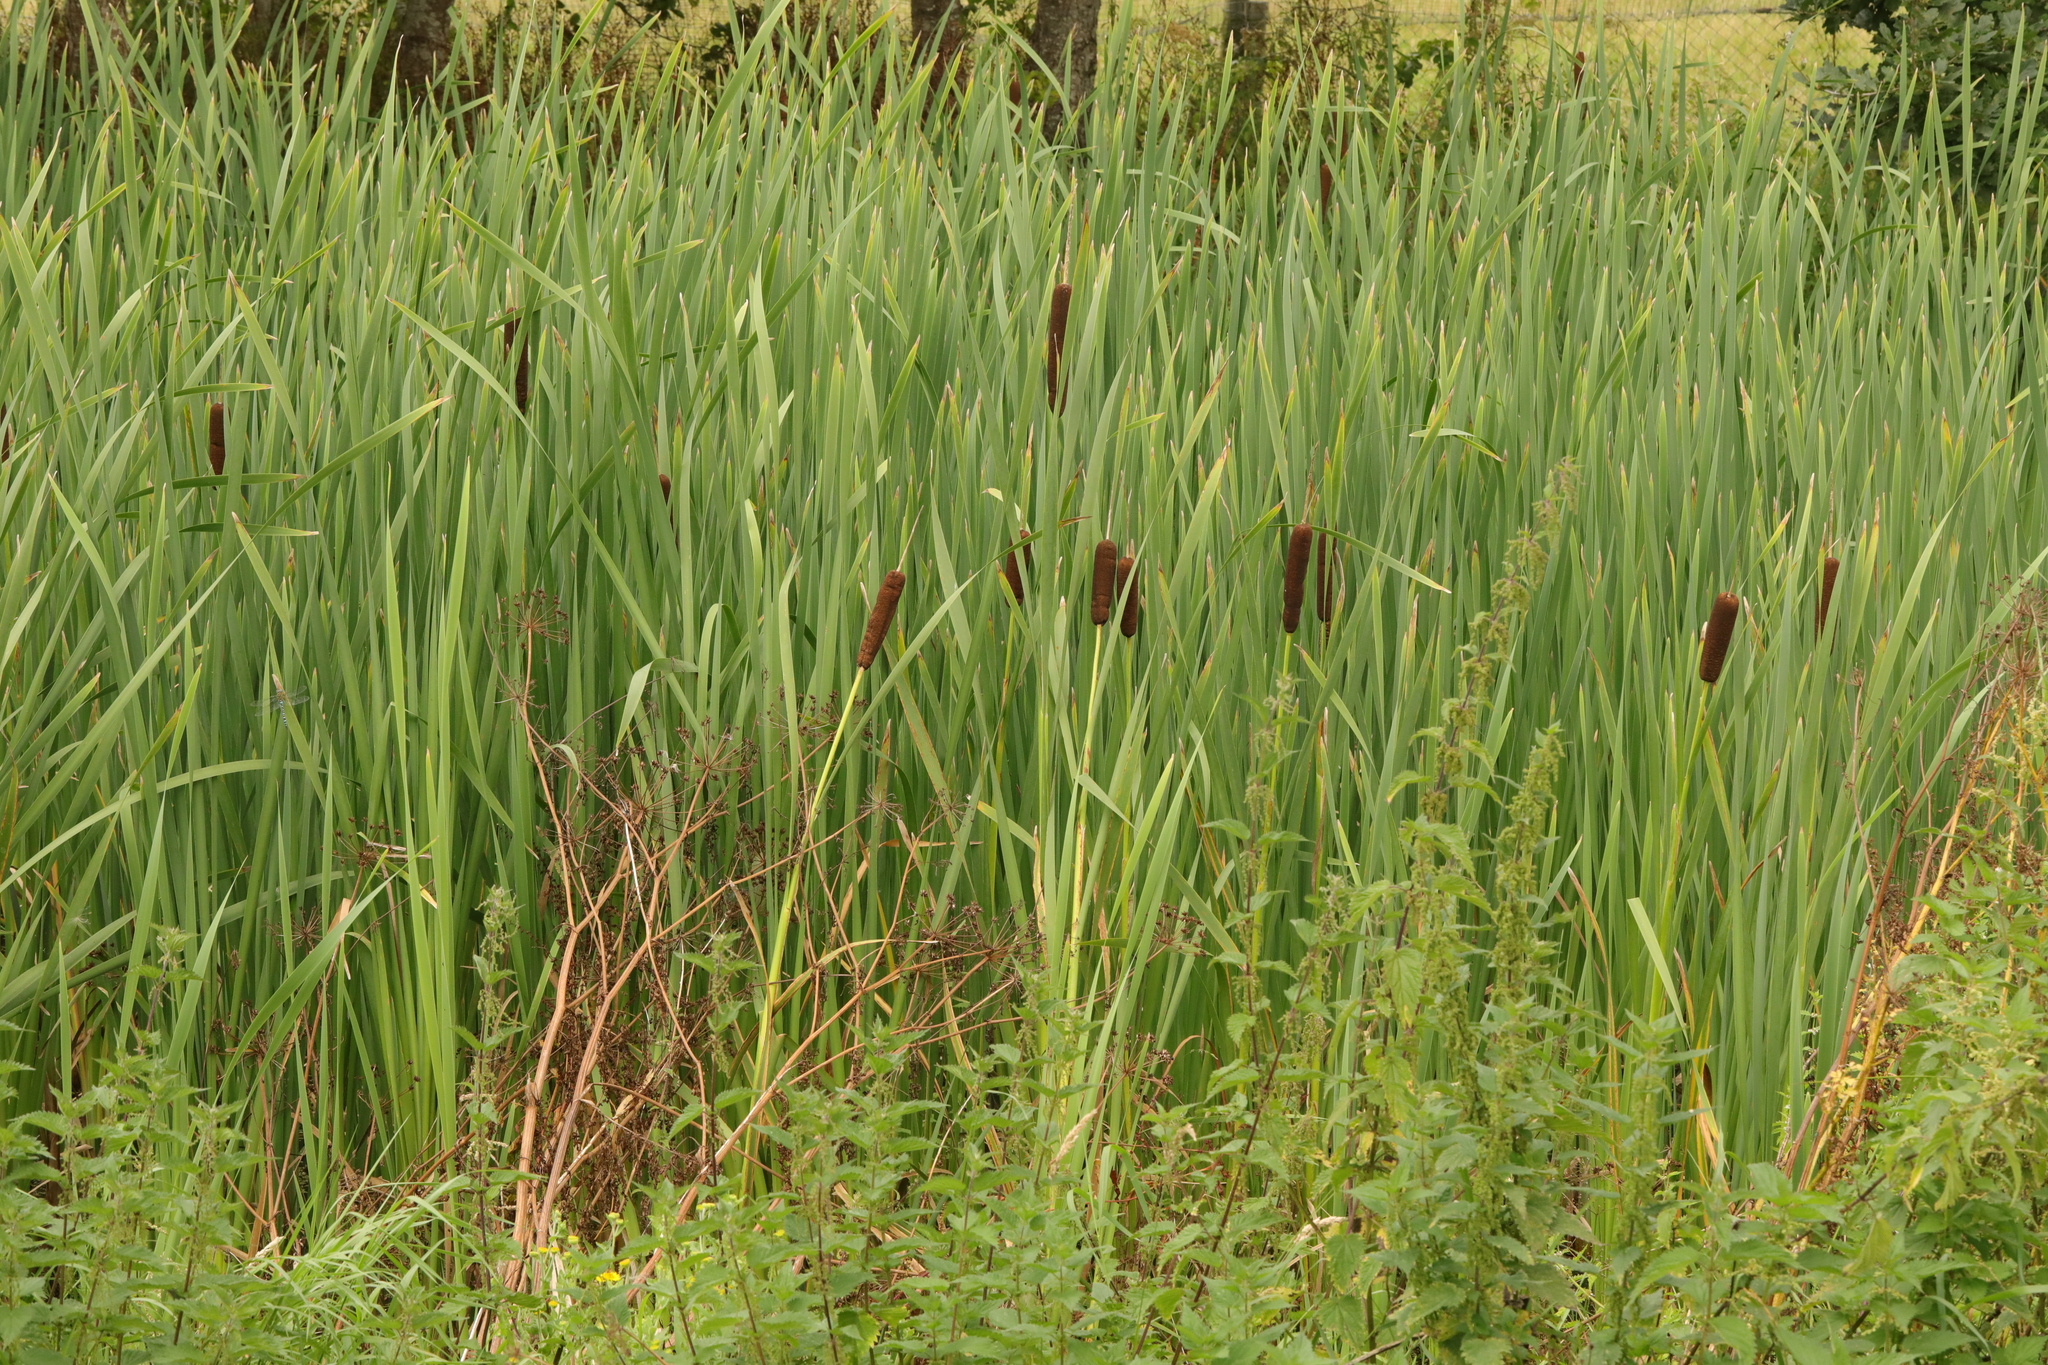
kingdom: Plantae
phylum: Tracheophyta
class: Liliopsida
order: Poales
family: Typhaceae
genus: Typha
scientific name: Typha latifolia
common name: Broadleaf cattail
